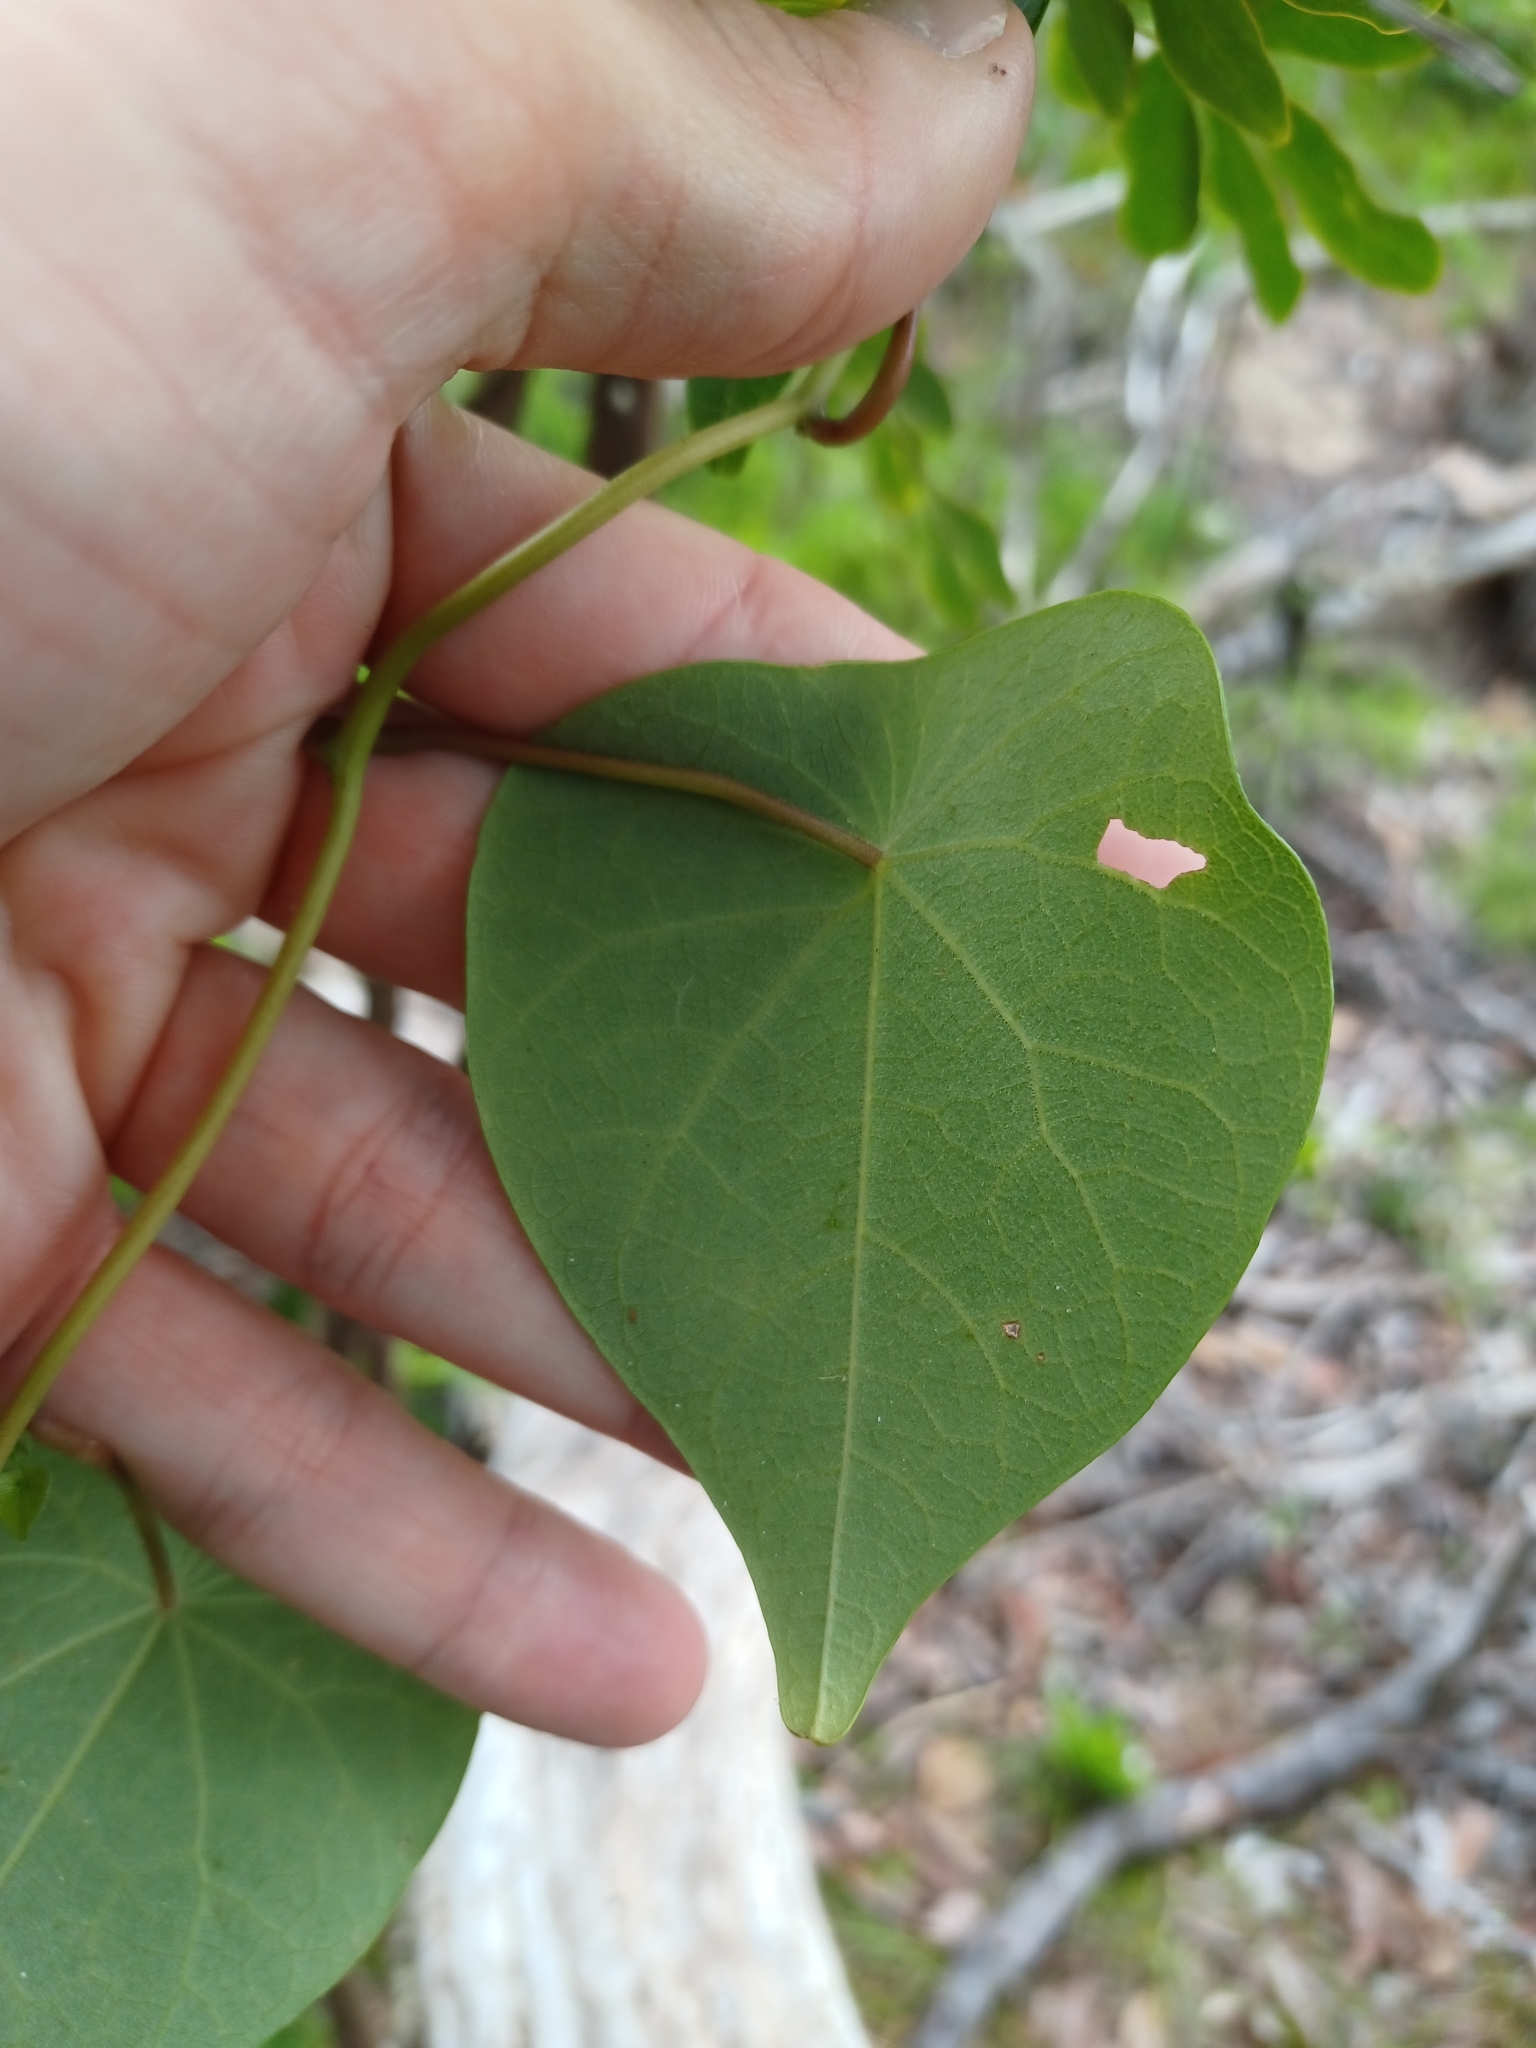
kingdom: Plantae
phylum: Tracheophyta
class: Magnoliopsida
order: Ranunculales
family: Menispermaceae
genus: Stephania
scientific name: Stephania japonica
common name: Snake vine
